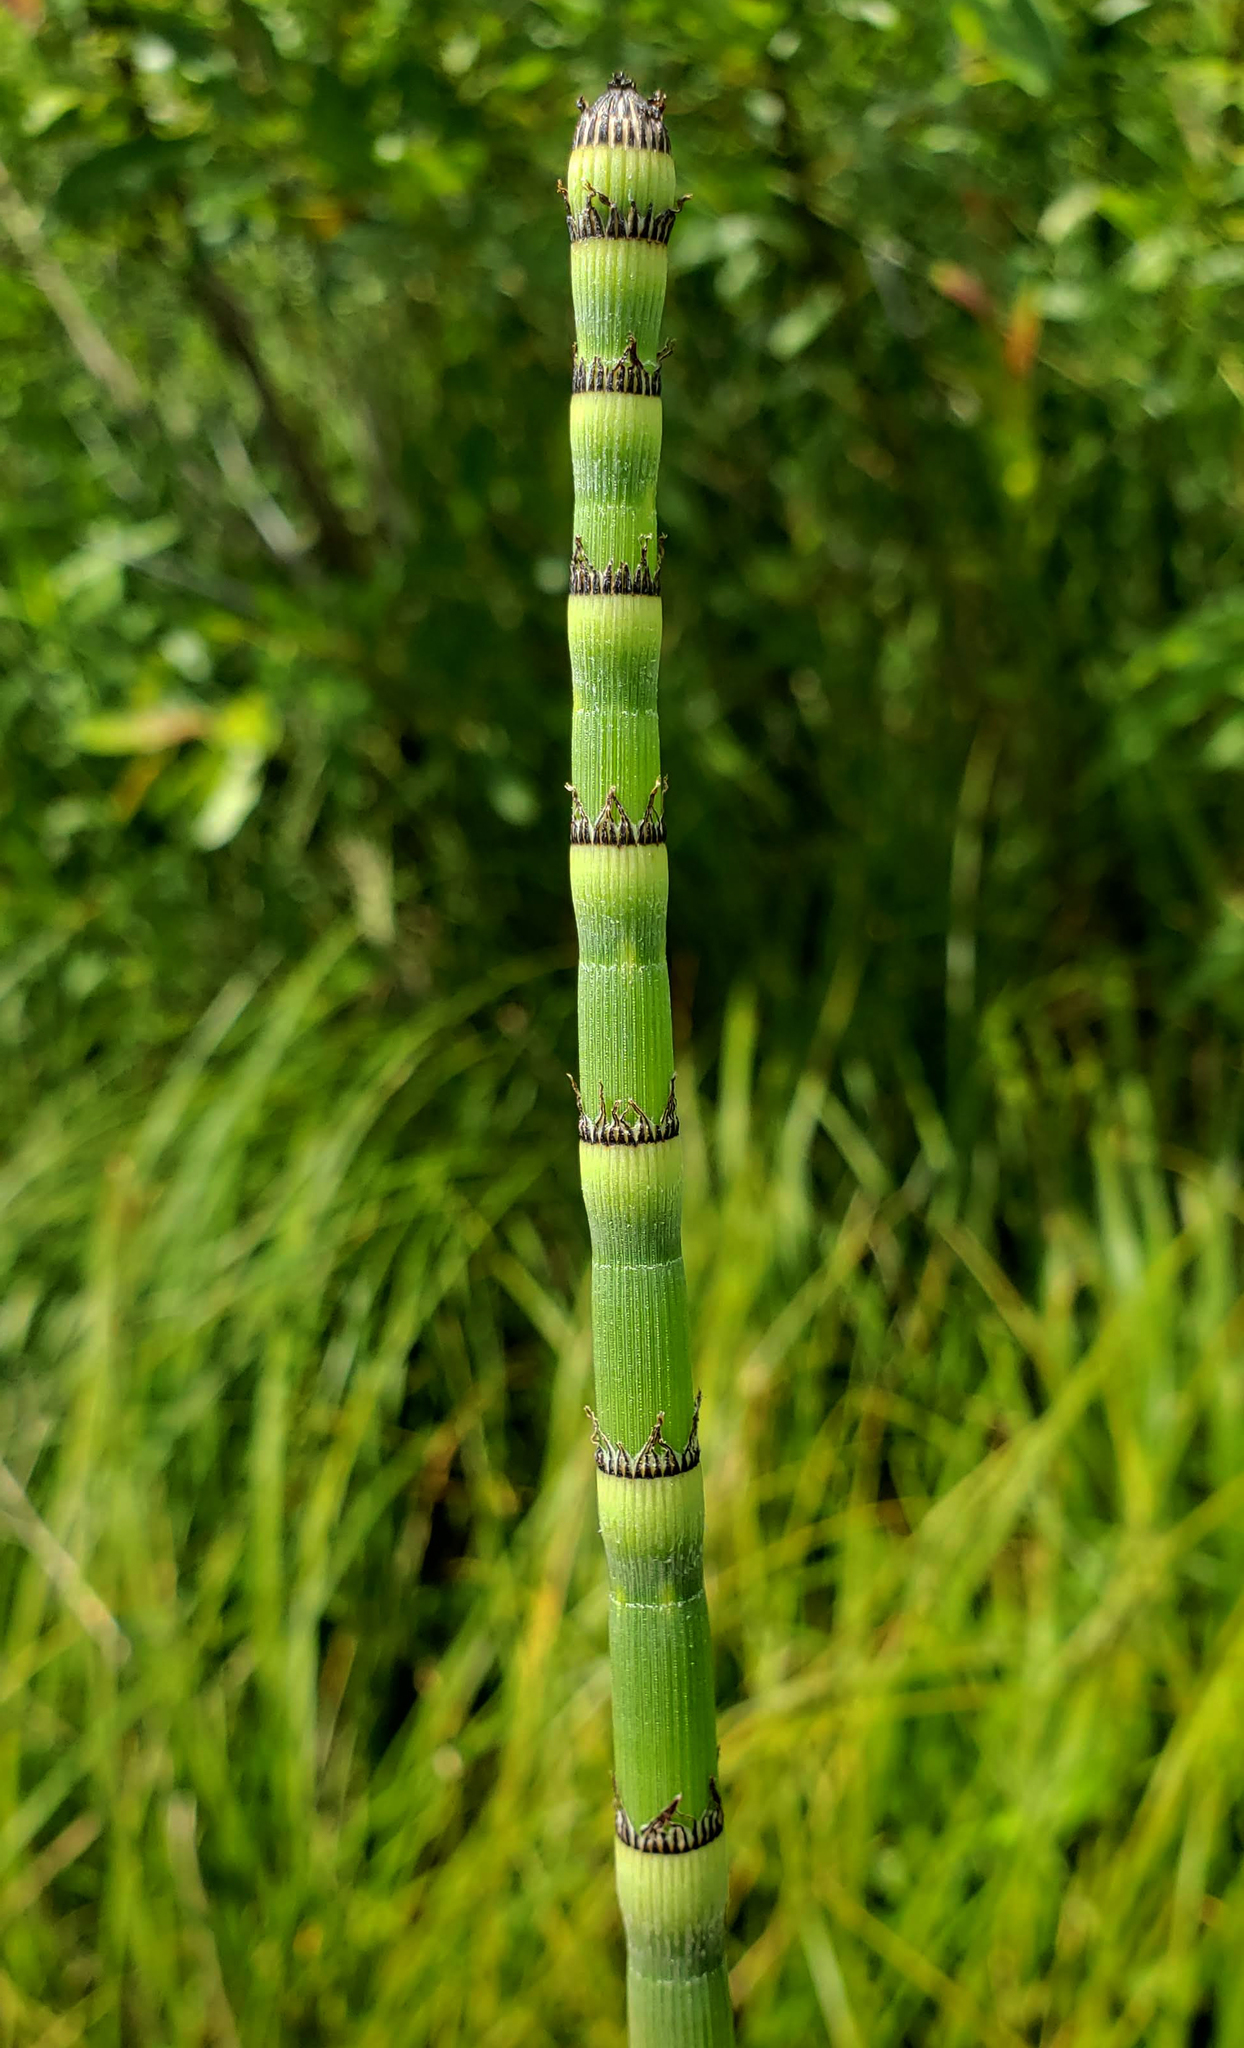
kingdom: Plantae
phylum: Tracheophyta
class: Polypodiopsida
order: Equisetales
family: Equisetaceae
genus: Equisetum
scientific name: Equisetum praealtum
